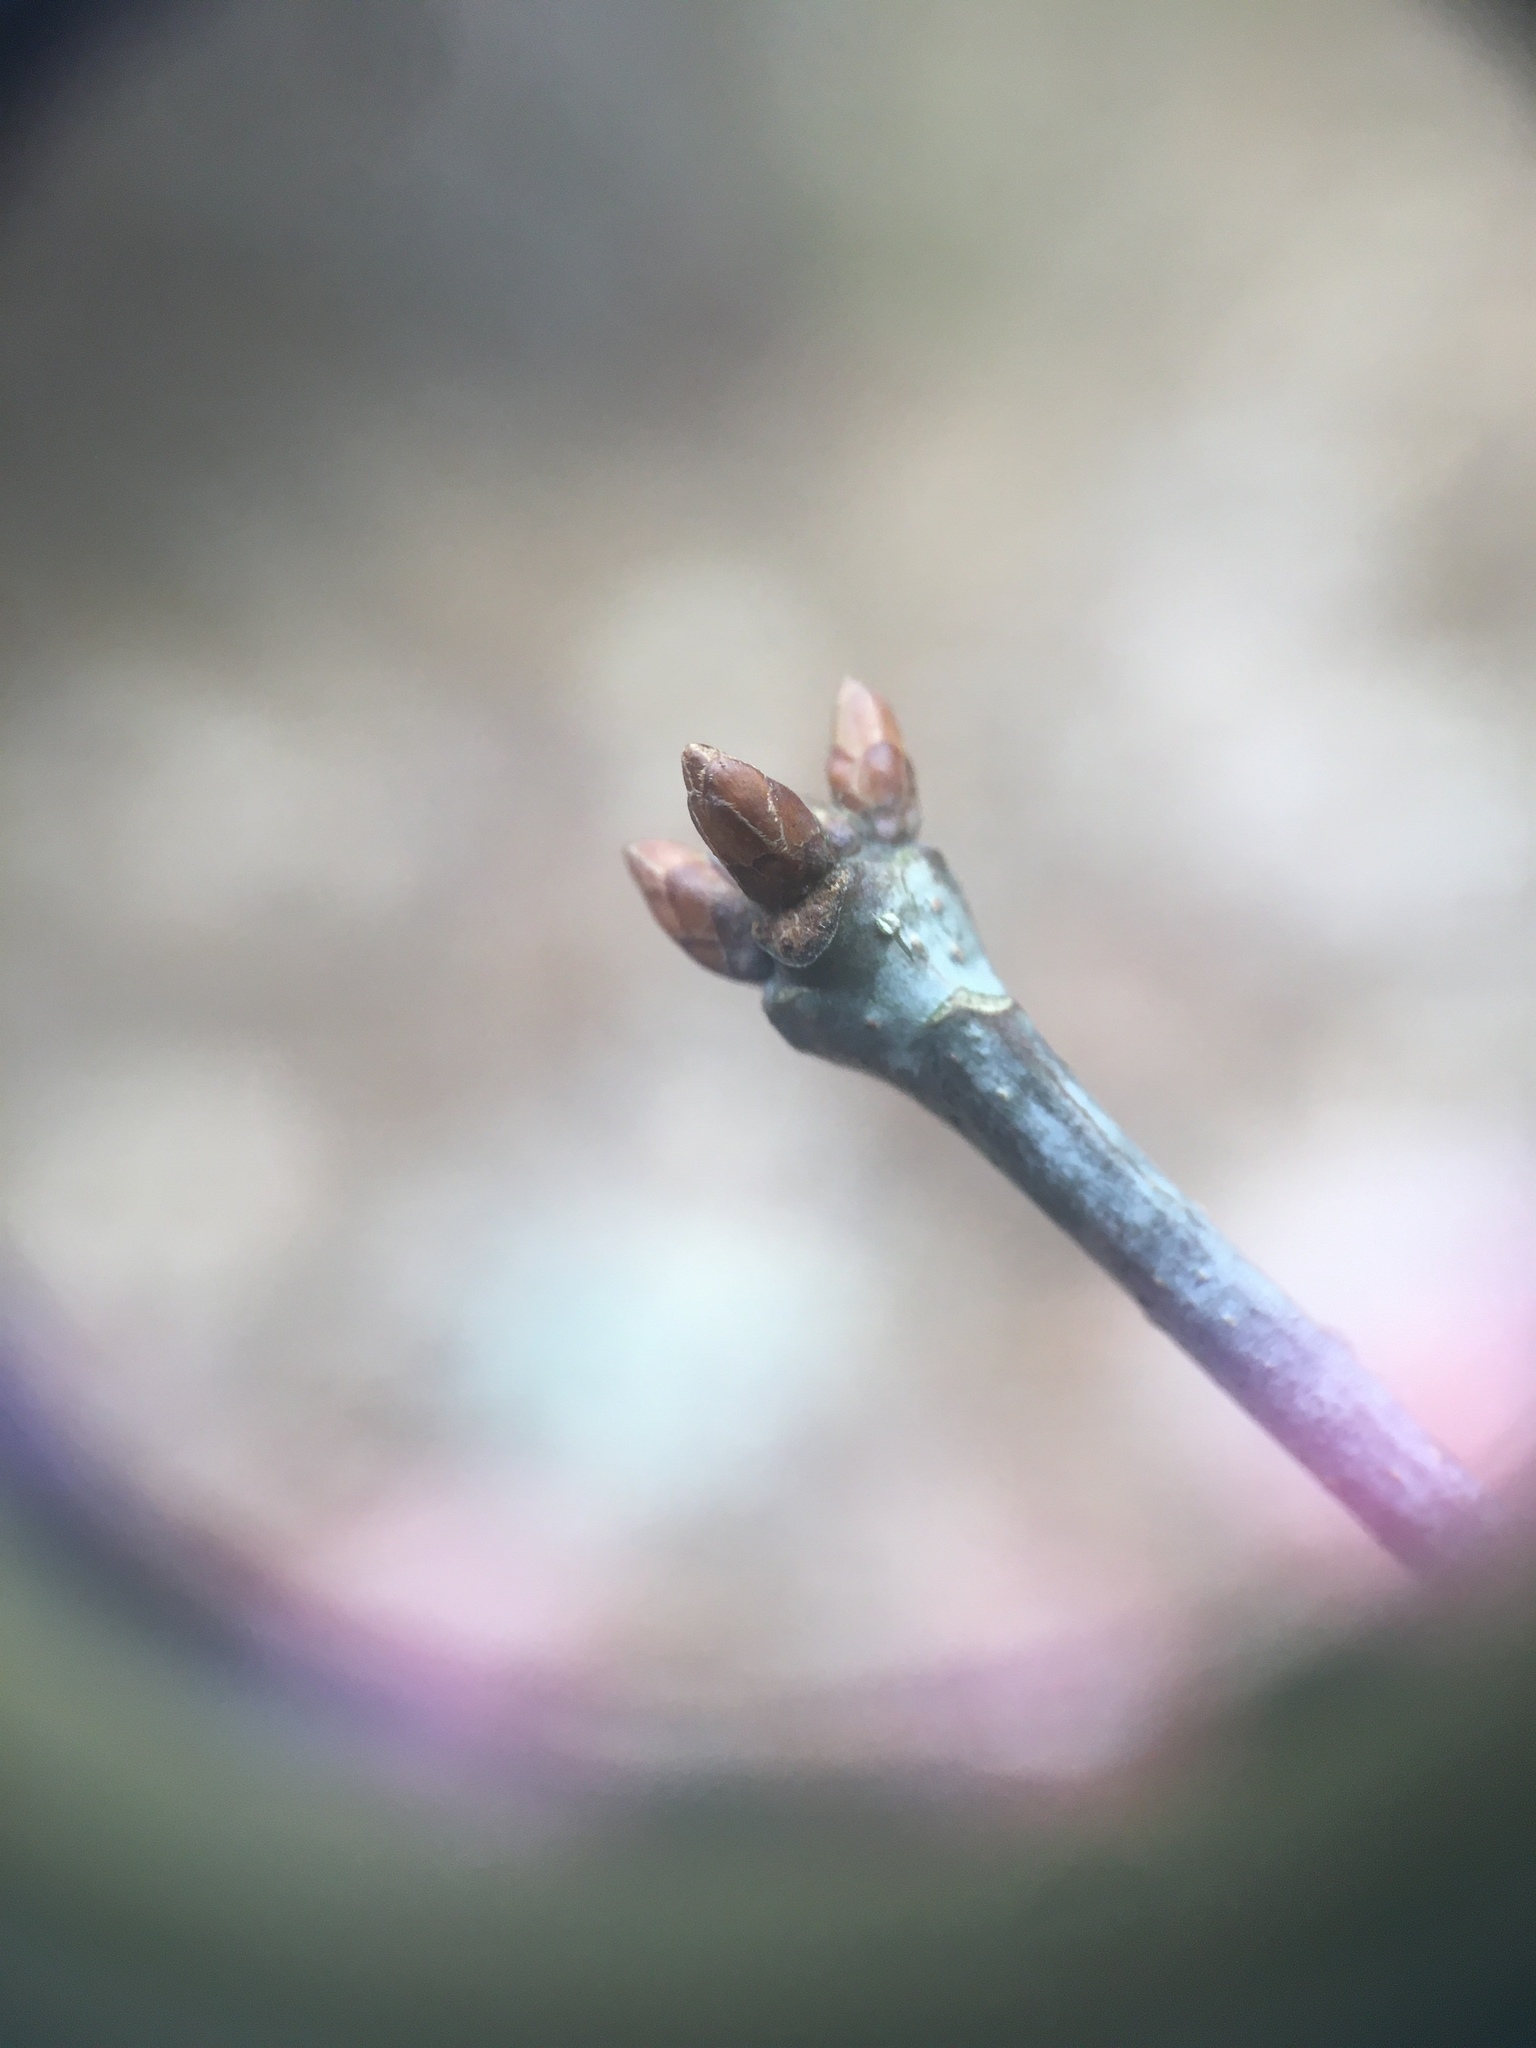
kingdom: Plantae
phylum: Tracheophyta
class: Magnoliopsida
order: Fagales
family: Fagaceae
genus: Quercus
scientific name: Quercus alba
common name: White oak
